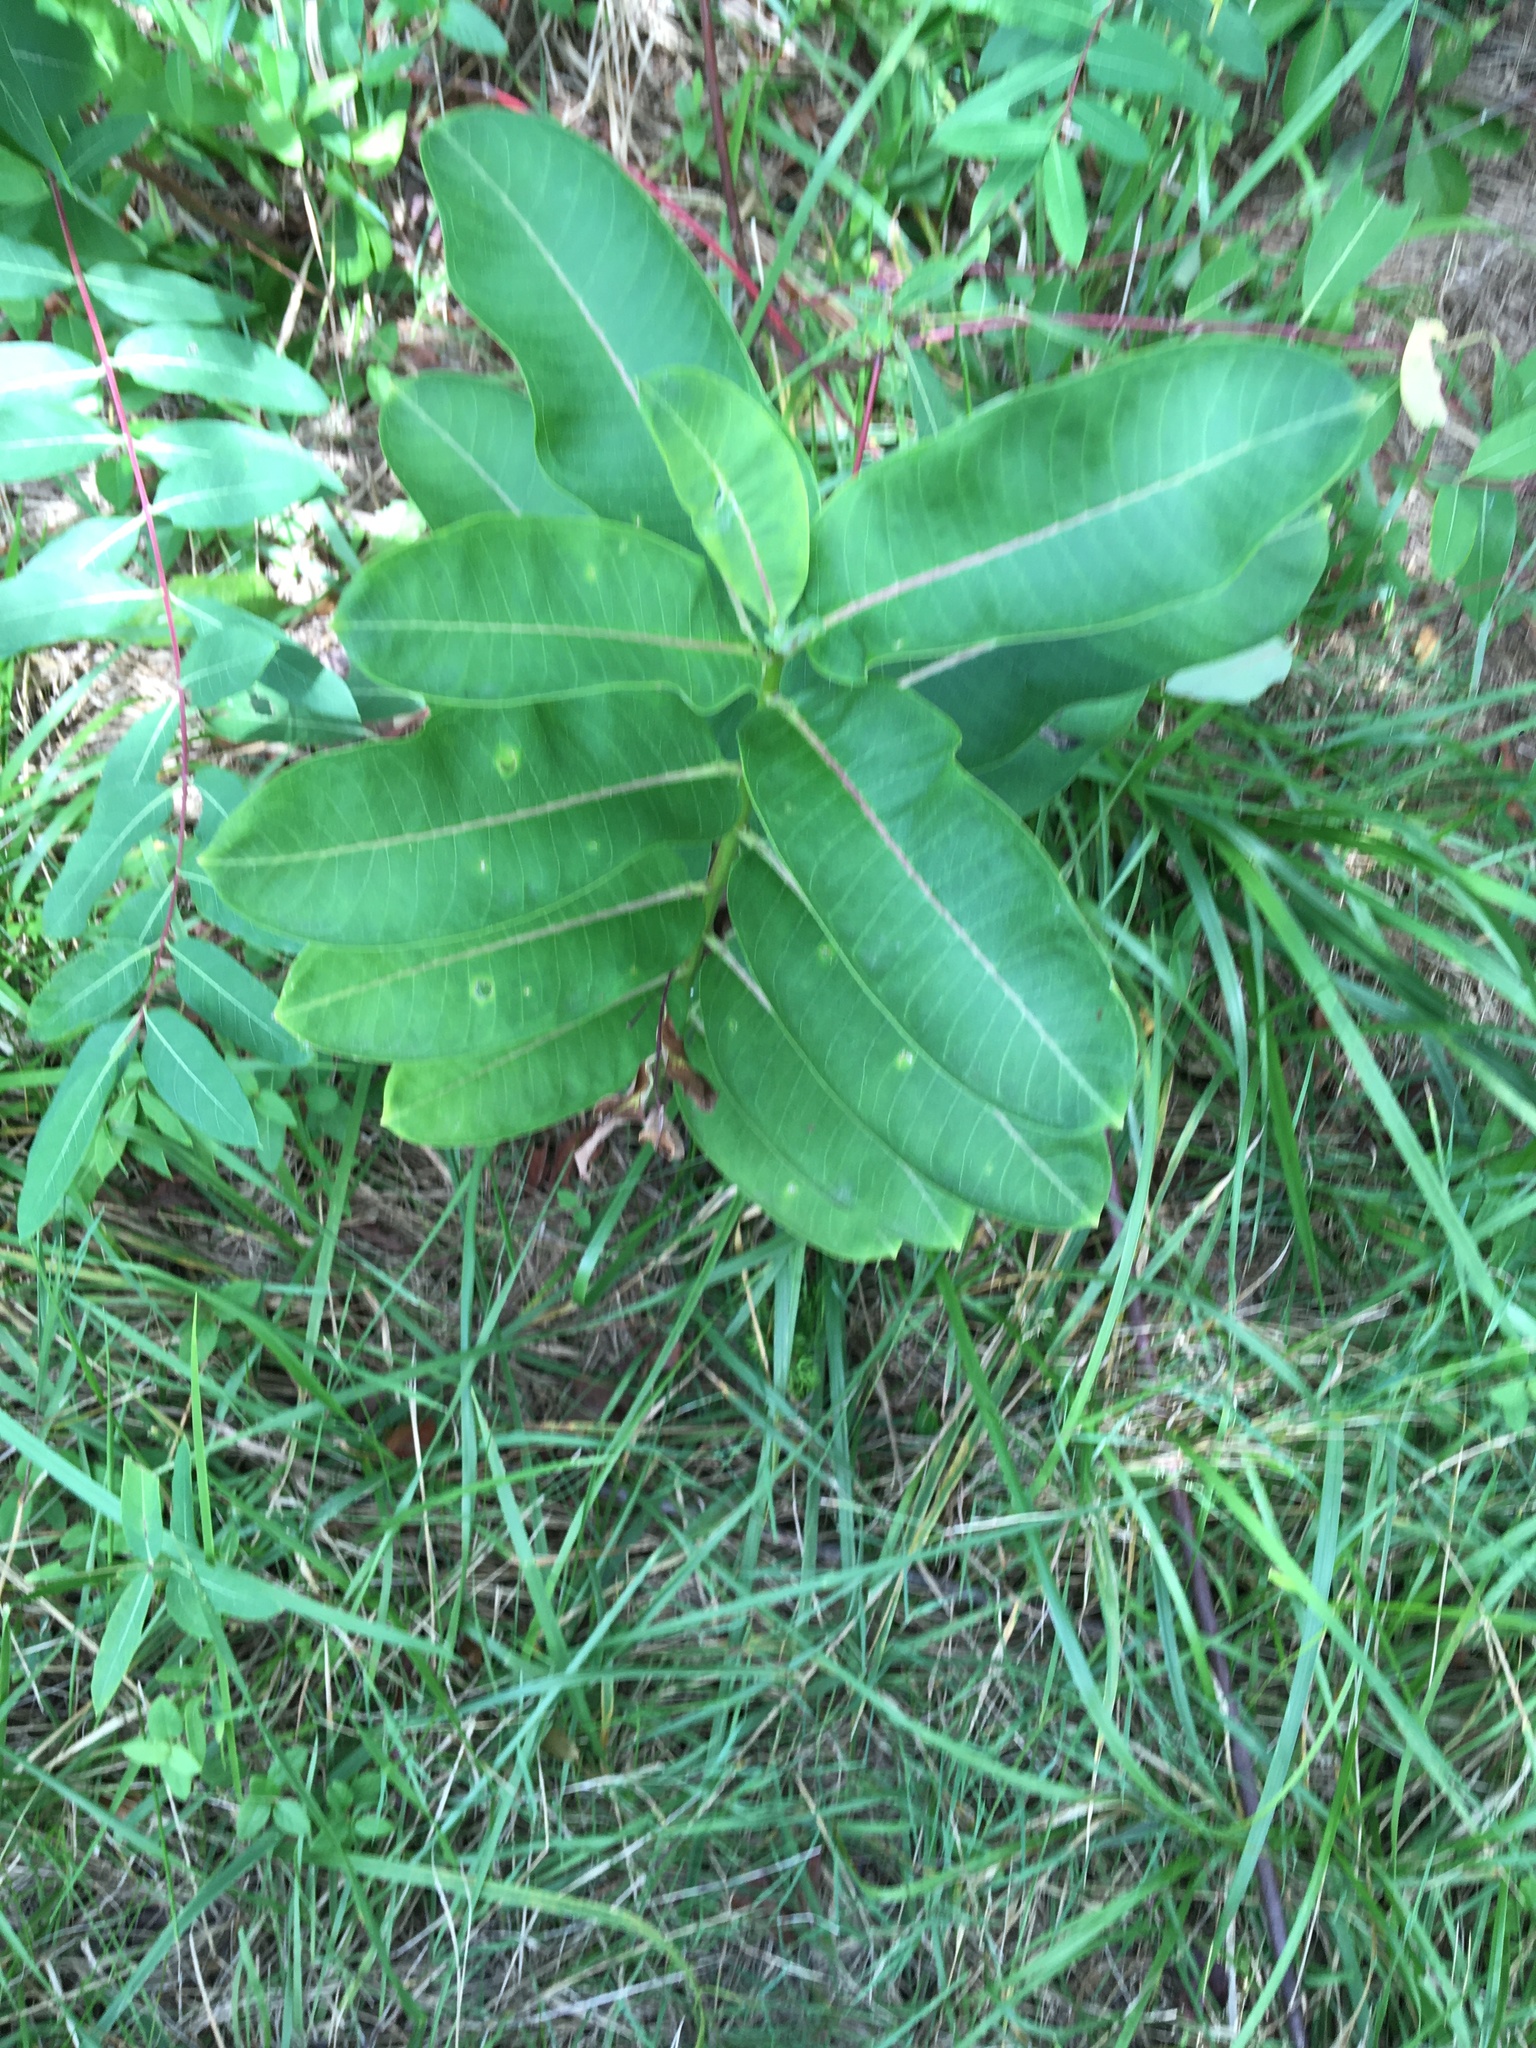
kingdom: Plantae
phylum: Tracheophyta
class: Magnoliopsida
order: Gentianales
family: Apocynaceae
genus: Asclepias
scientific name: Asclepias syriaca
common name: Common milkweed
